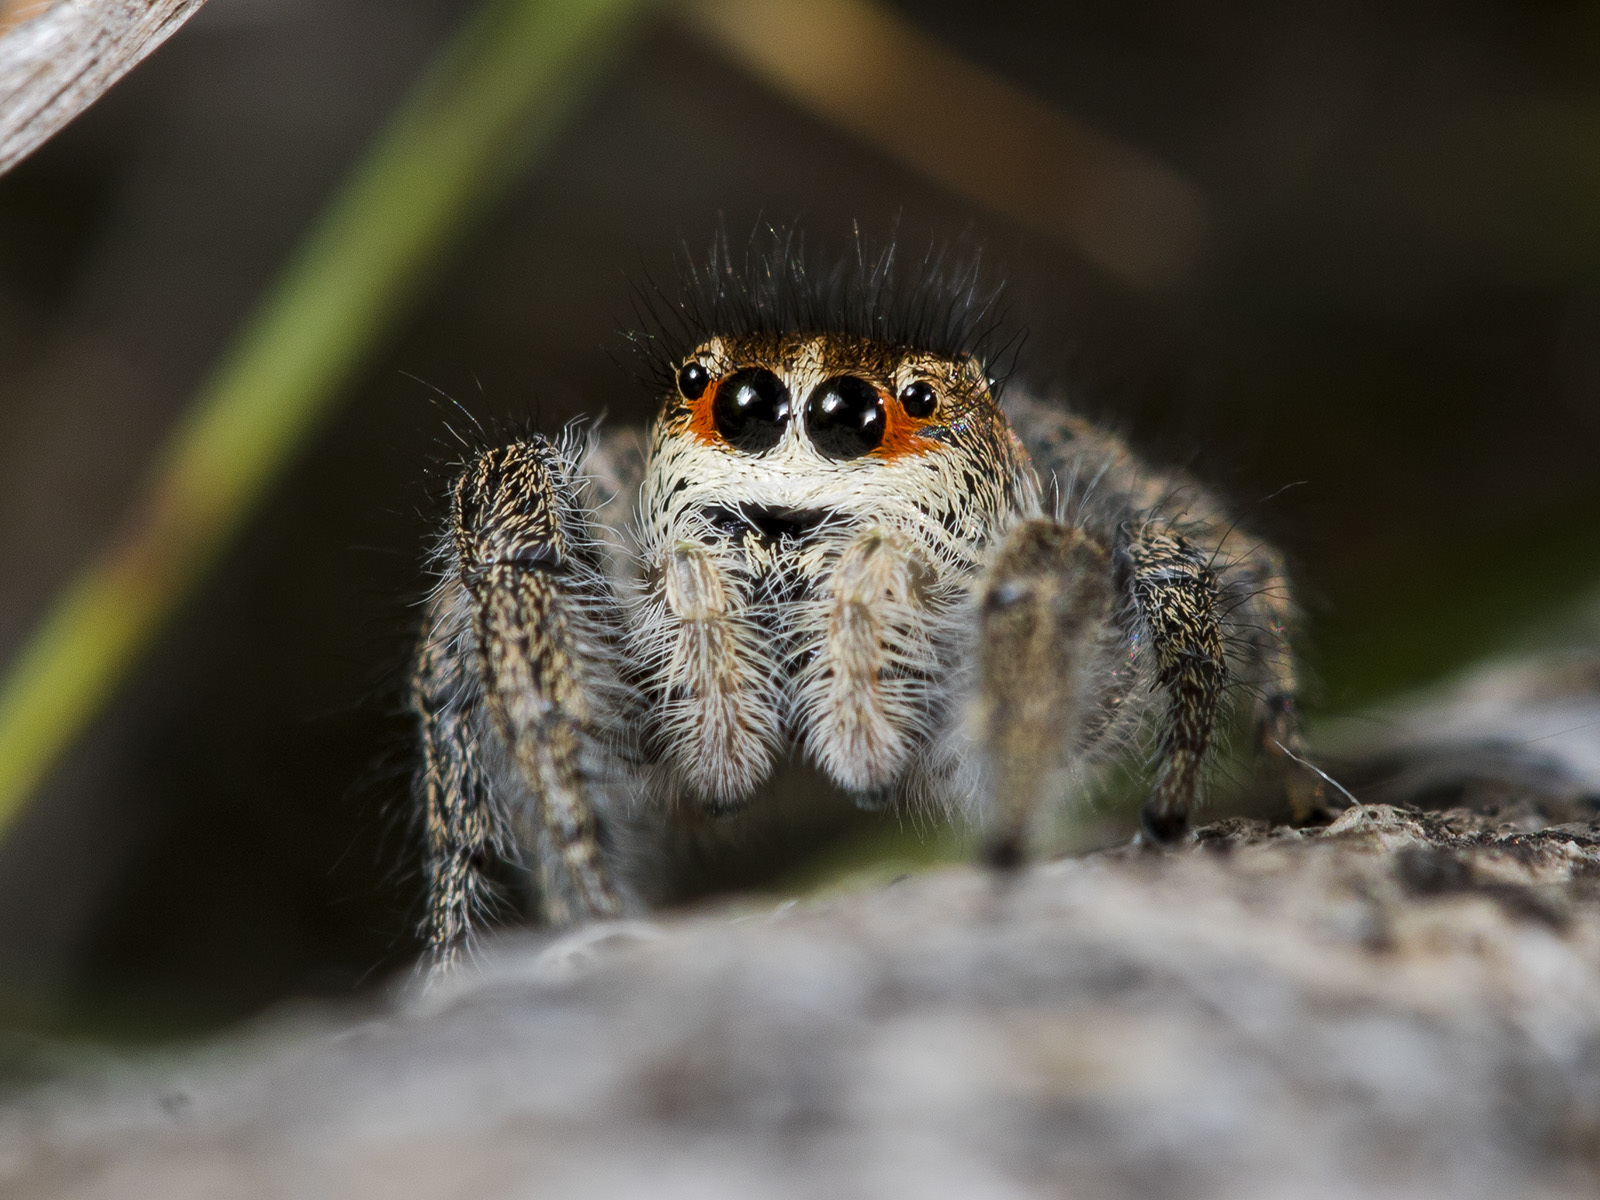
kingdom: Animalia
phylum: Arthropoda
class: Arachnida
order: Araneae
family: Salticidae
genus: Pellenes
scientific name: Pellenes seriatus
